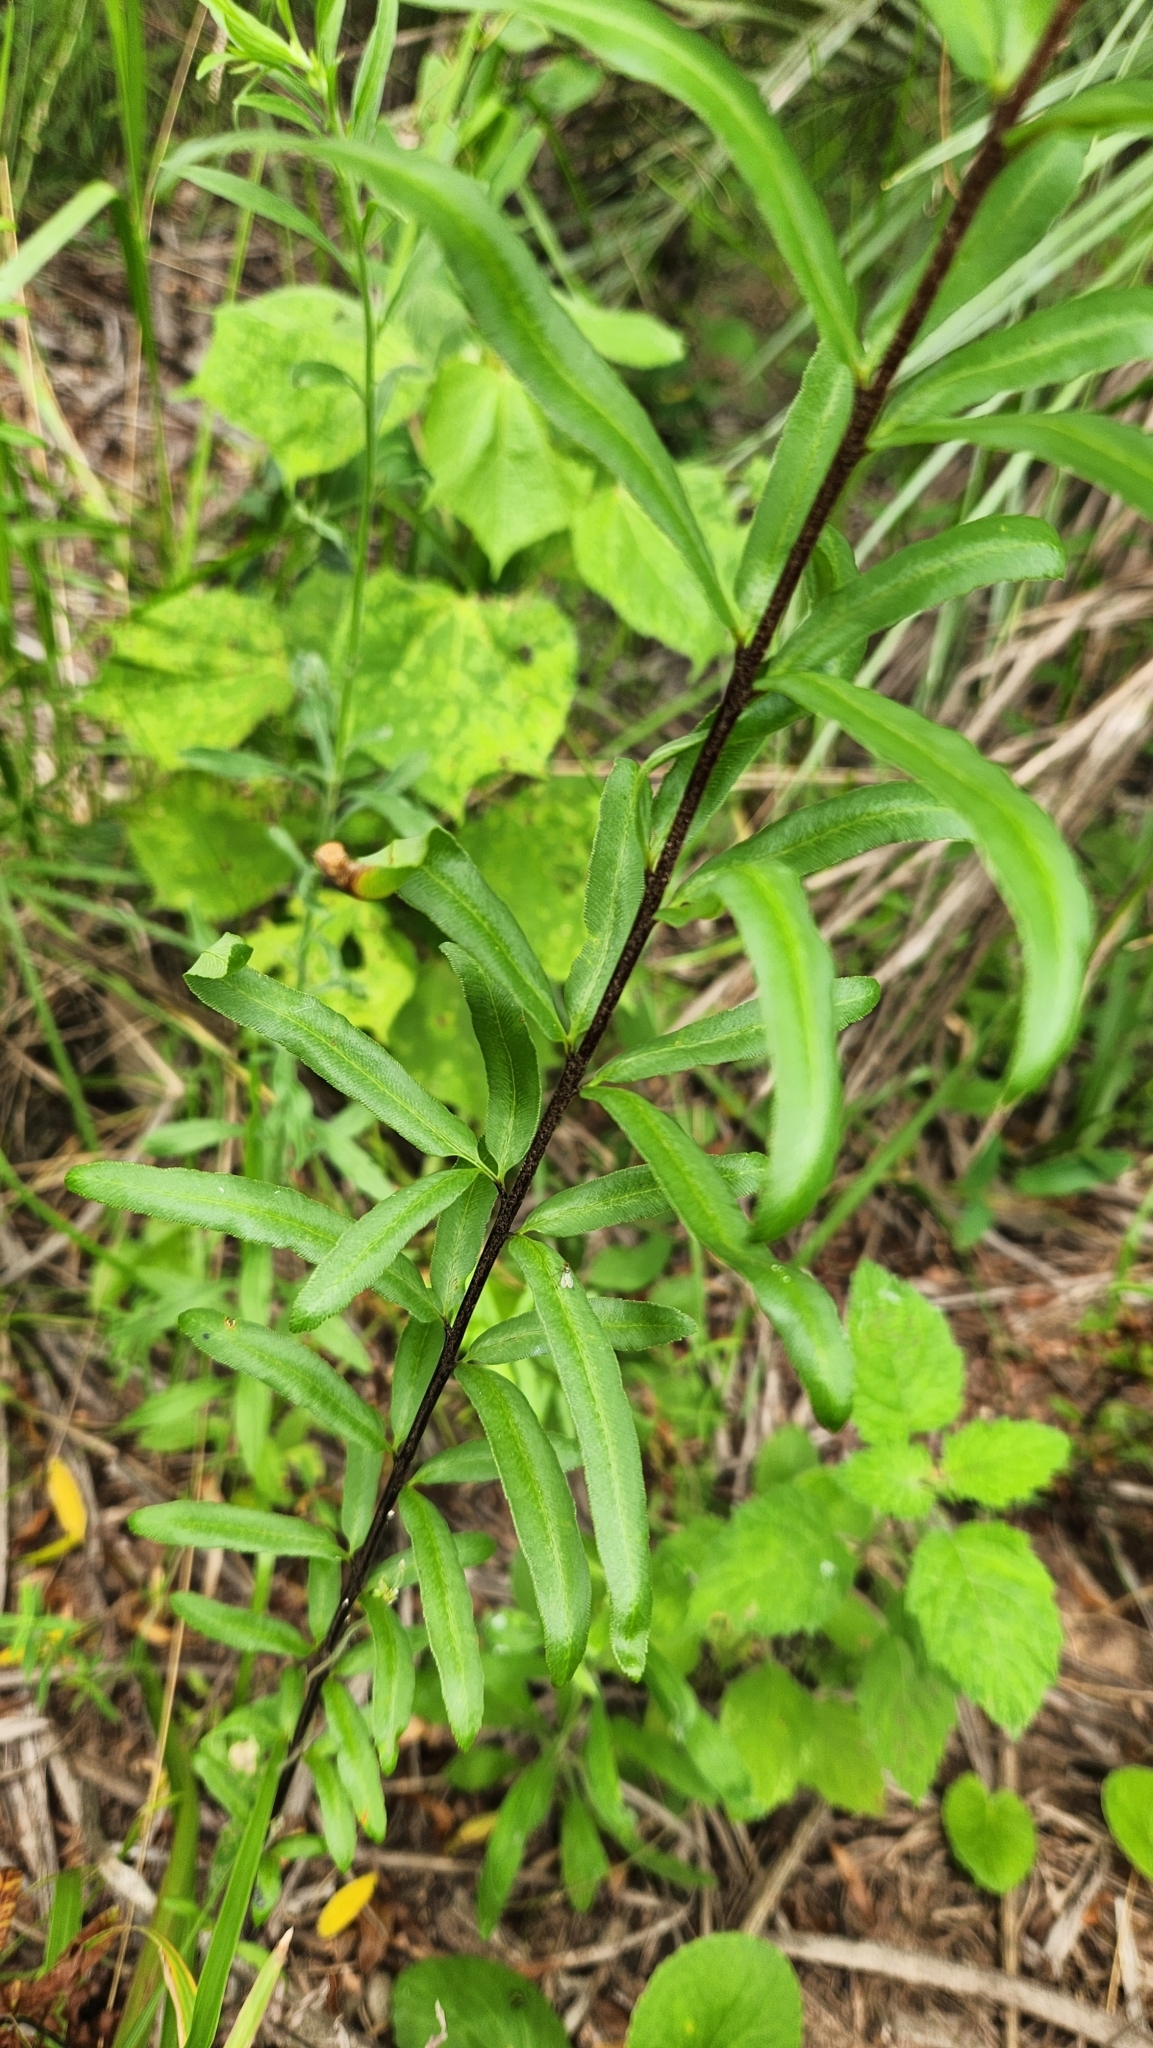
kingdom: Plantae
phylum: Tracheophyta
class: Polypodiopsida
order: Polypodiales
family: Pteridaceae
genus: Pityrogramma
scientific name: Pityrogramma trifoliata
